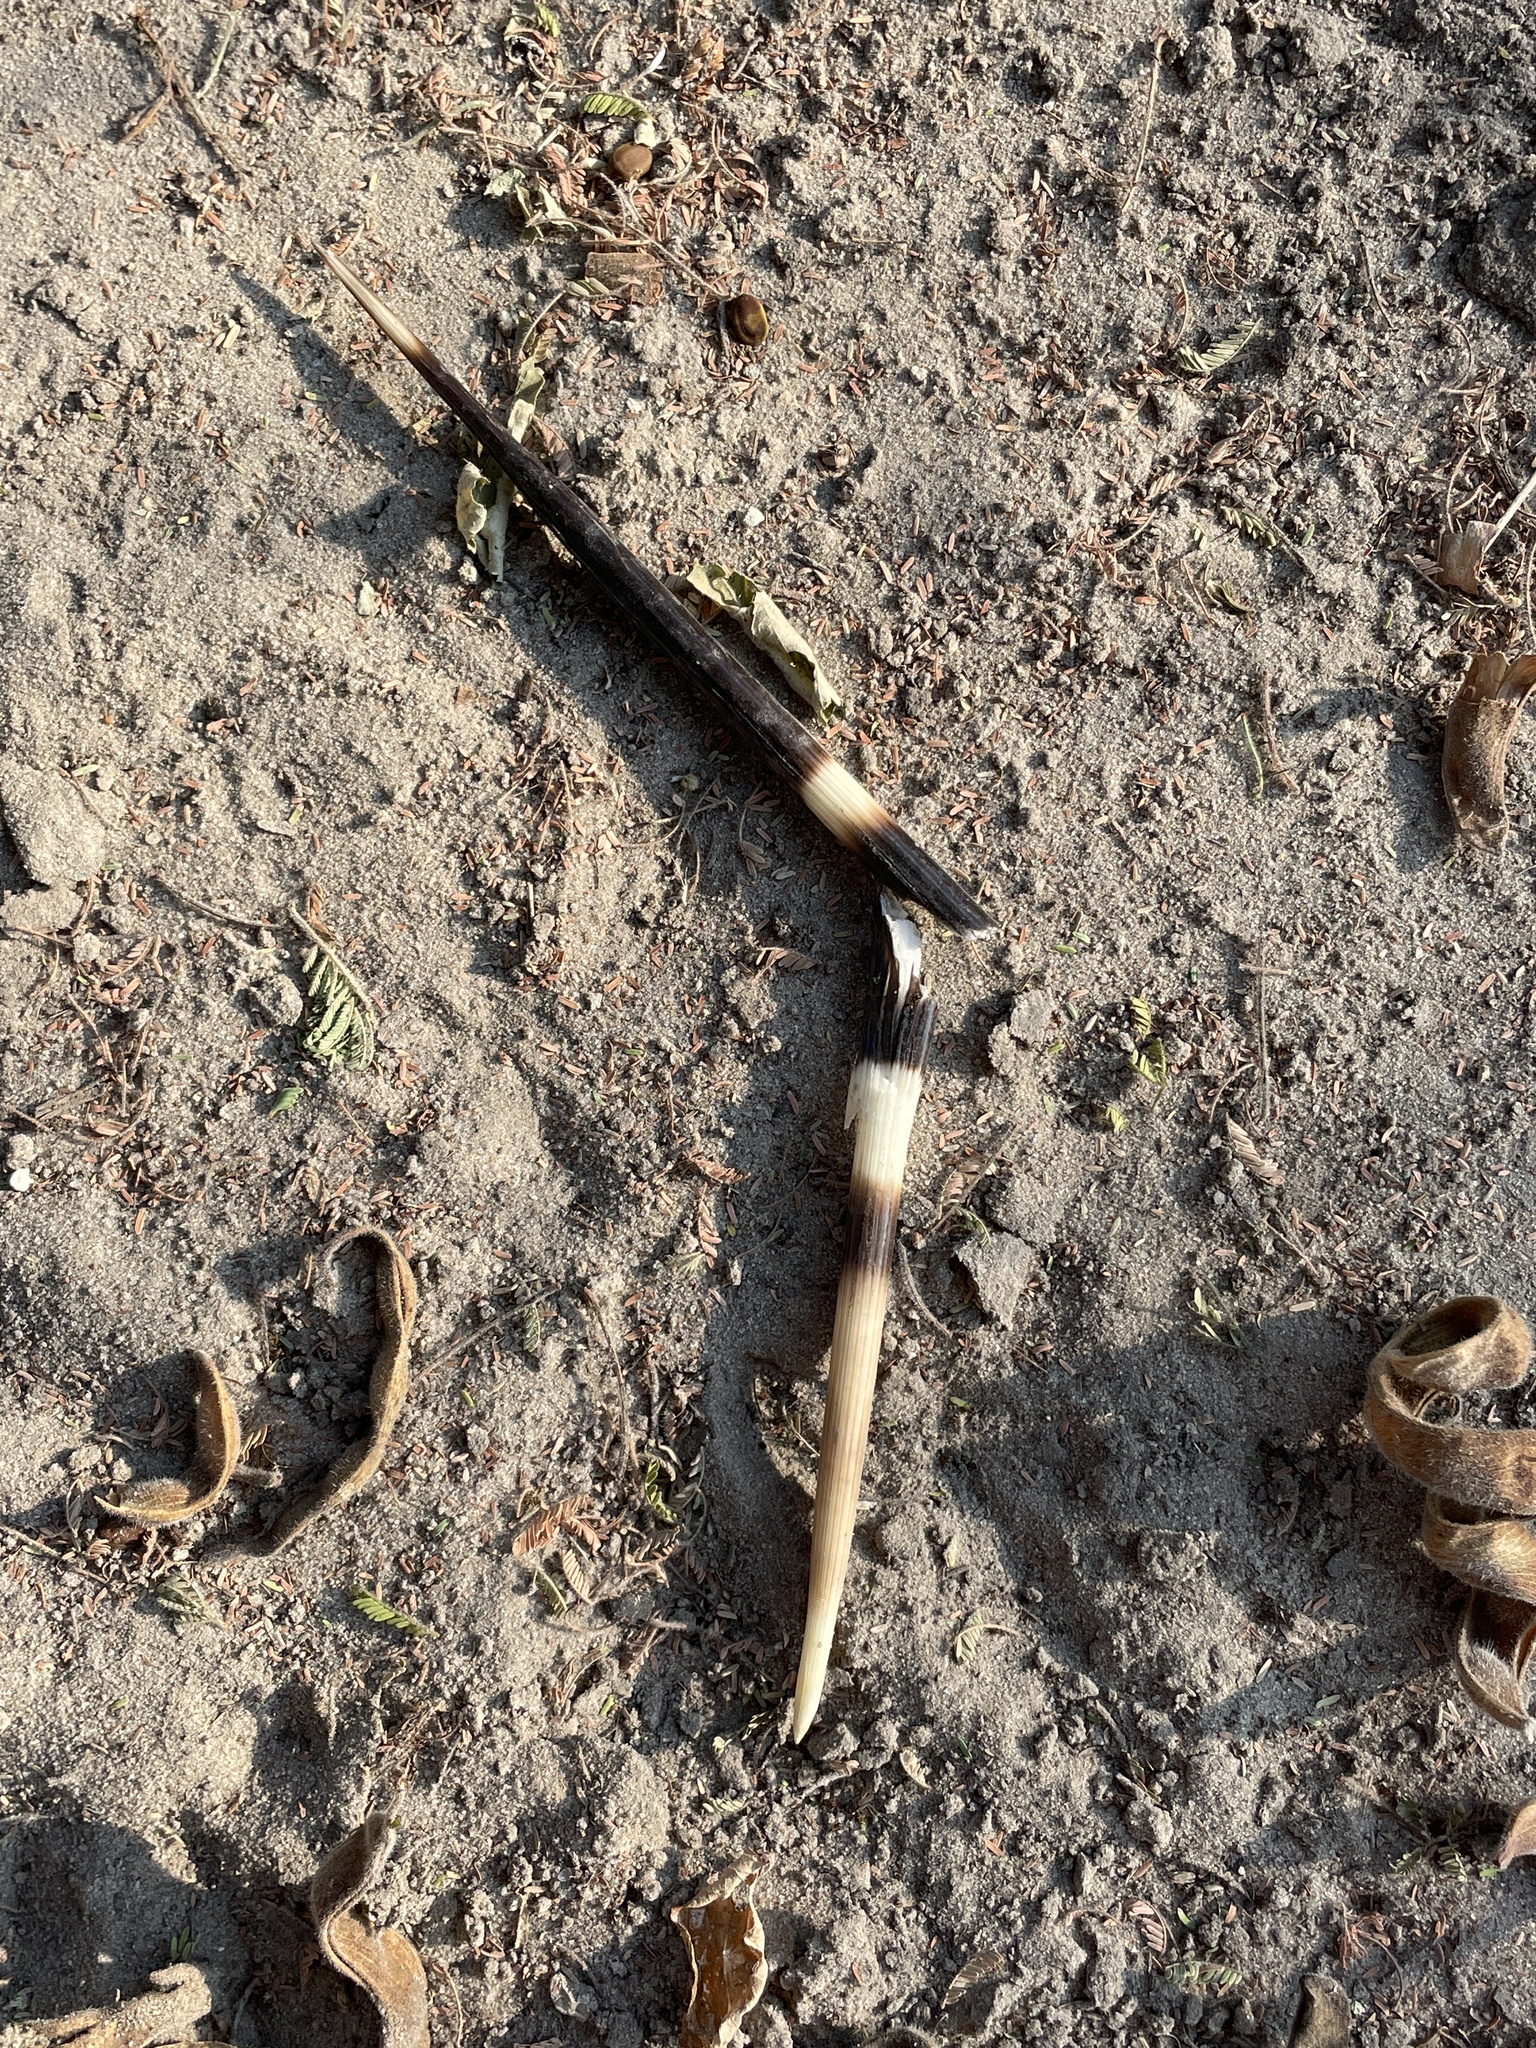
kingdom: Animalia
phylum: Chordata
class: Mammalia
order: Rodentia
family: Hystricidae
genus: Hystrix
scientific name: Hystrix africaeaustralis
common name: Cape porcupine
